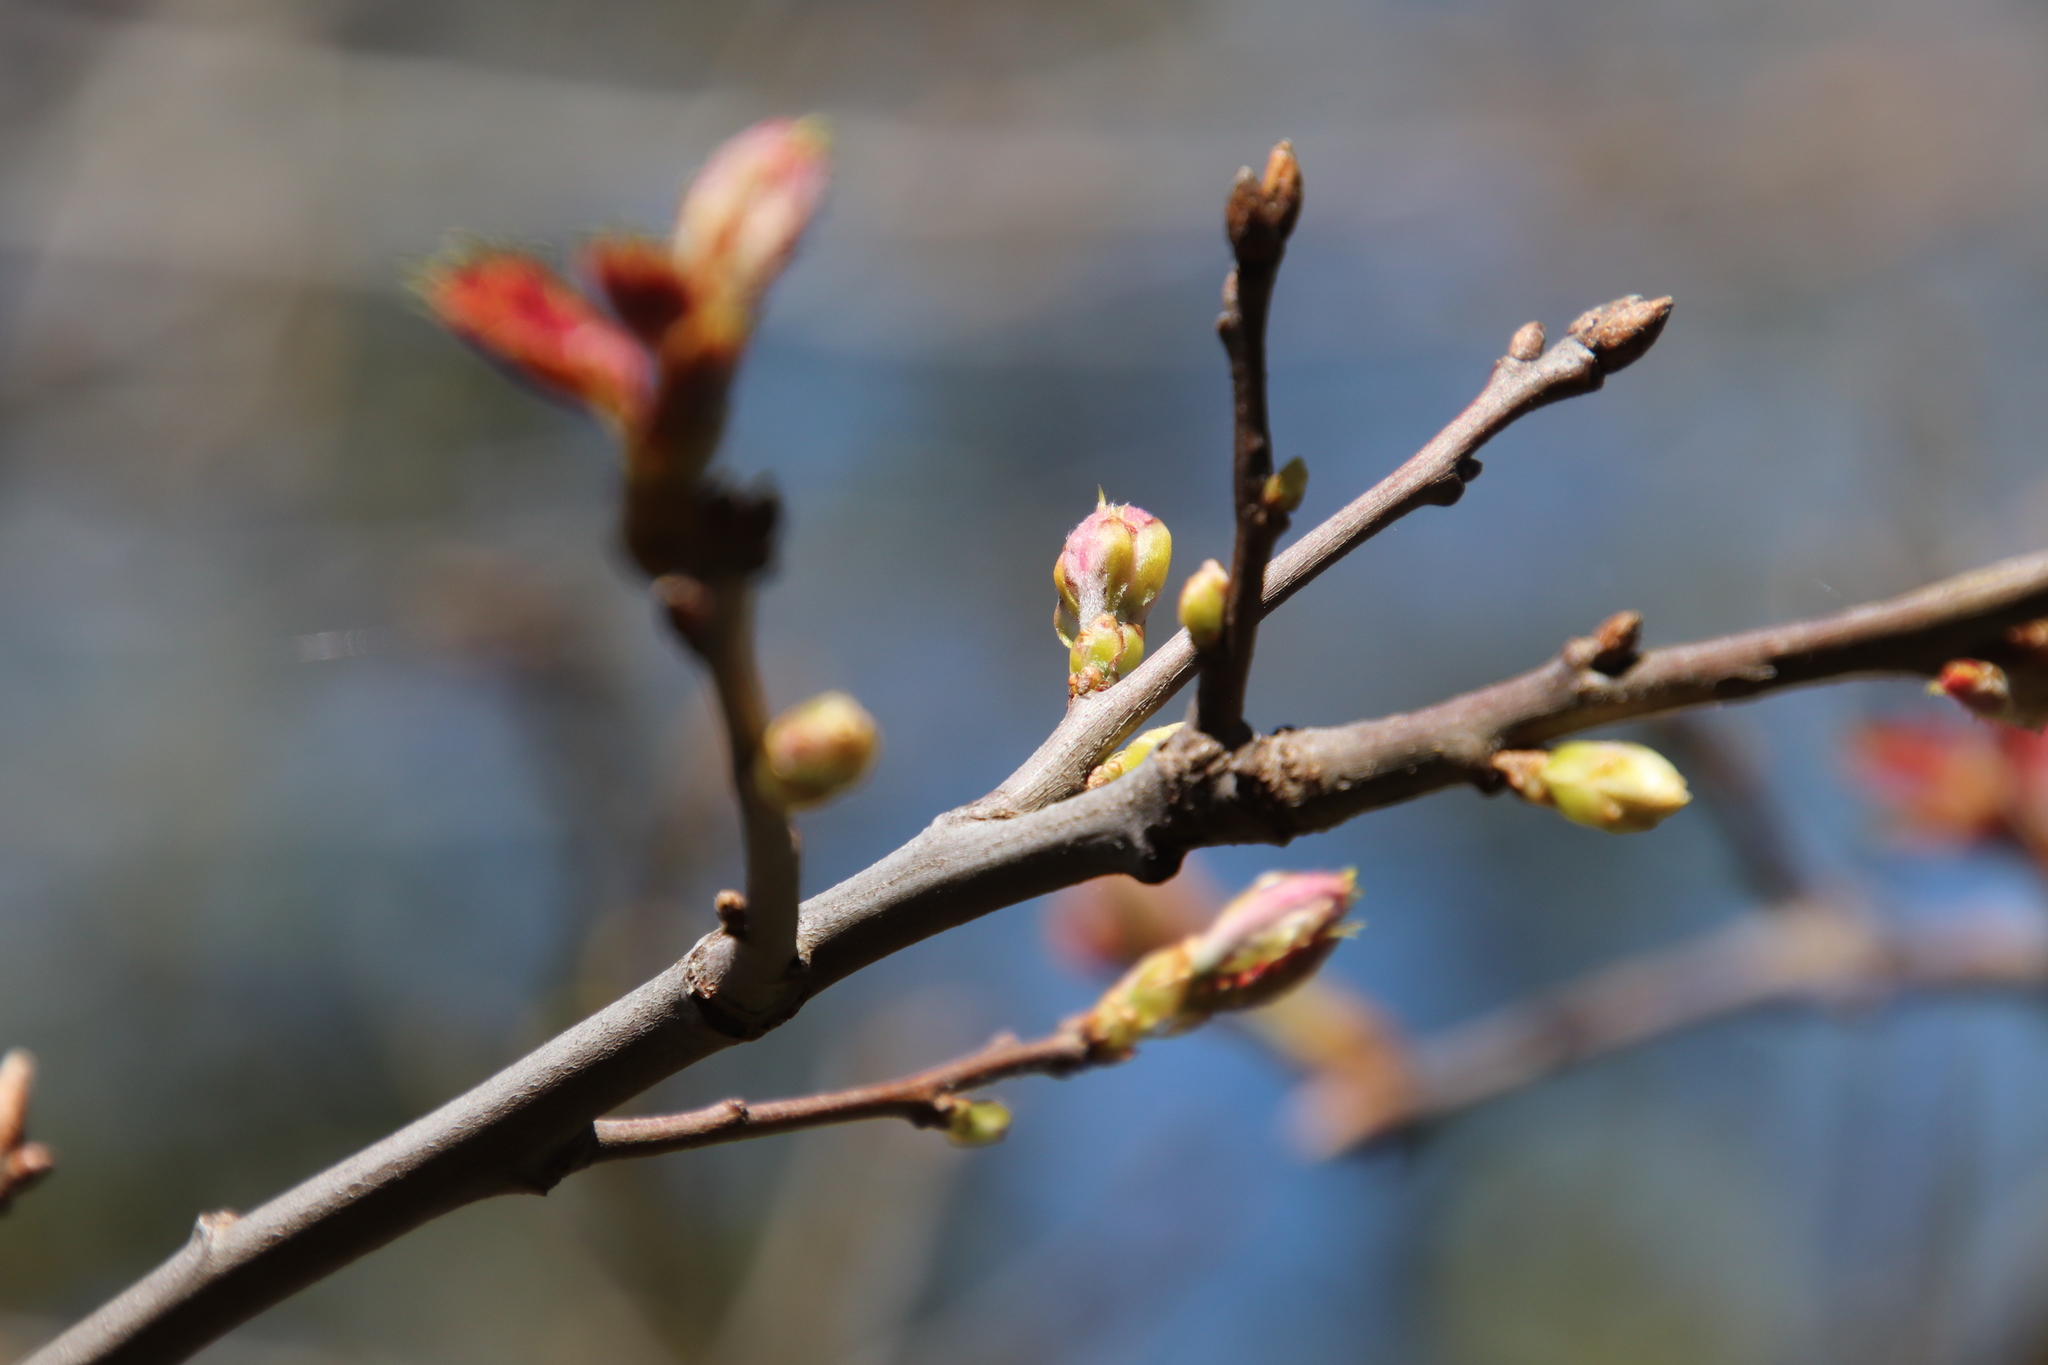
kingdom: Plantae
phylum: Tracheophyta
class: Magnoliopsida
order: Fagales
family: Fagaceae
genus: Quercus
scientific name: Quercus kelloggii
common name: California black oak
